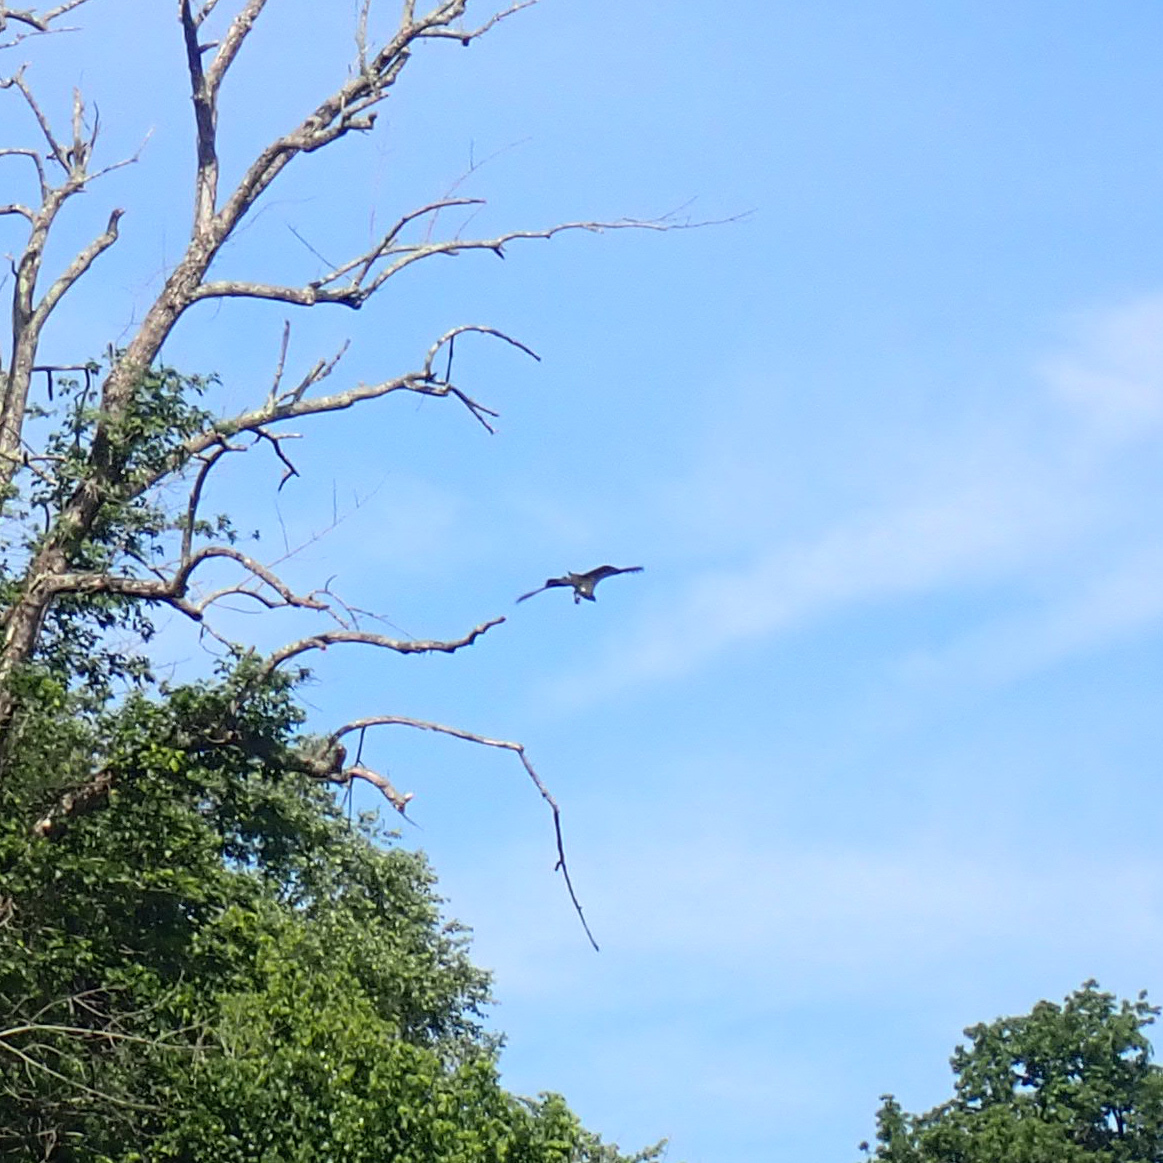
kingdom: Animalia
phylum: Chordata
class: Aves
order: Accipitriformes
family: Pandionidae
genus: Pandion
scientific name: Pandion haliaetus
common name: Osprey
